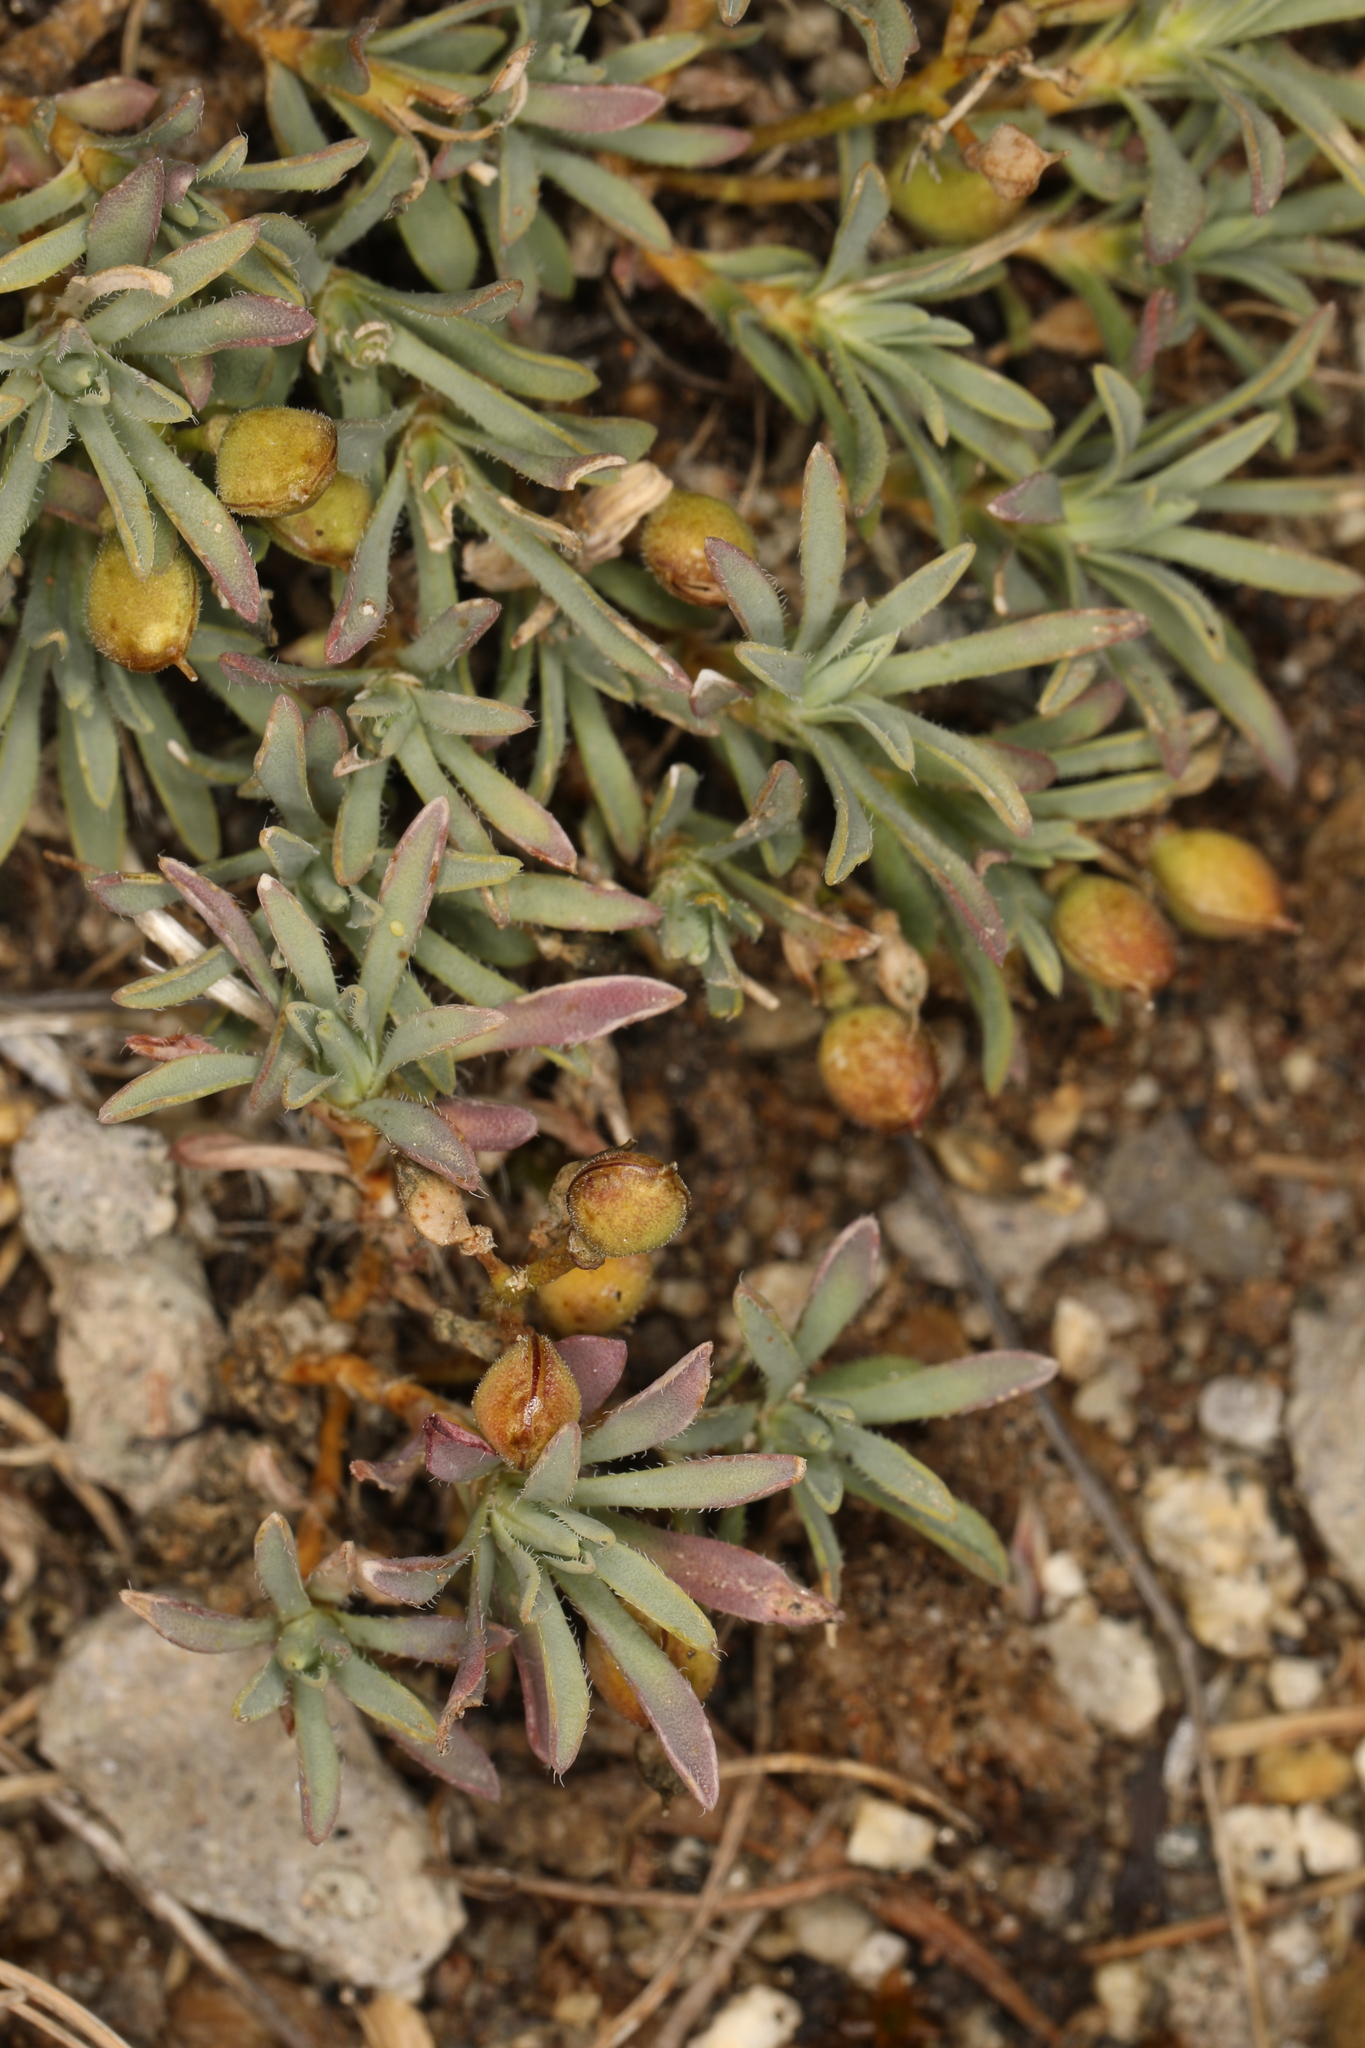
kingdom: Plantae
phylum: Tracheophyta
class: Magnoliopsida
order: Brassicales
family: Brassicaceae
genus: Cusickiella
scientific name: Cusickiella douglasii
